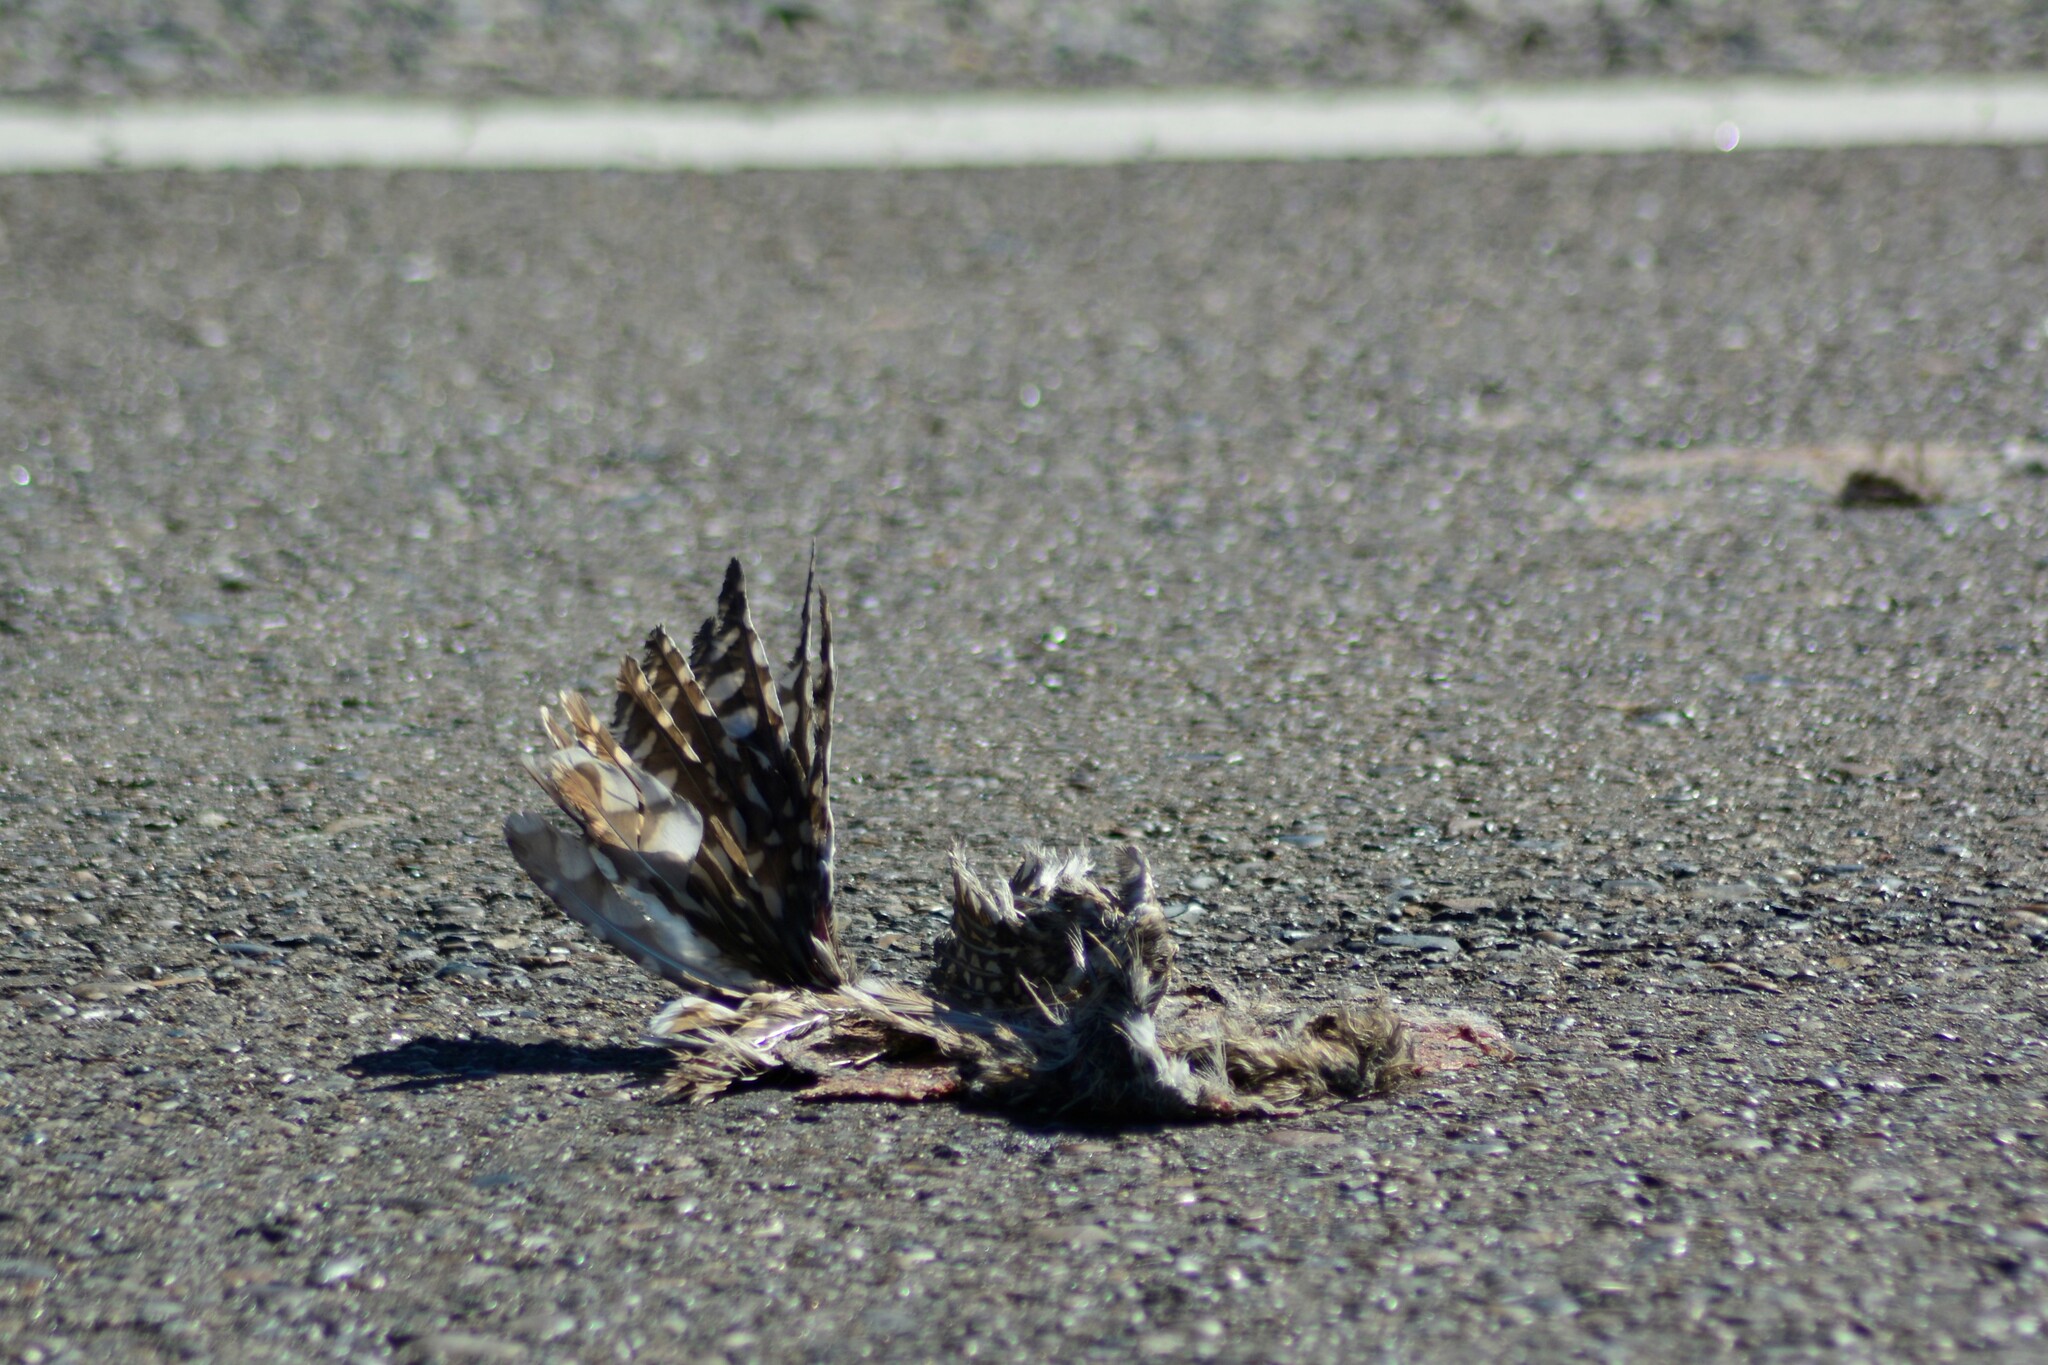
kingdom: Animalia
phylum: Chordata
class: Aves
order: Strigiformes
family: Strigidae
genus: Athene
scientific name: Athene cunicularia
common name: Burrowing owl
